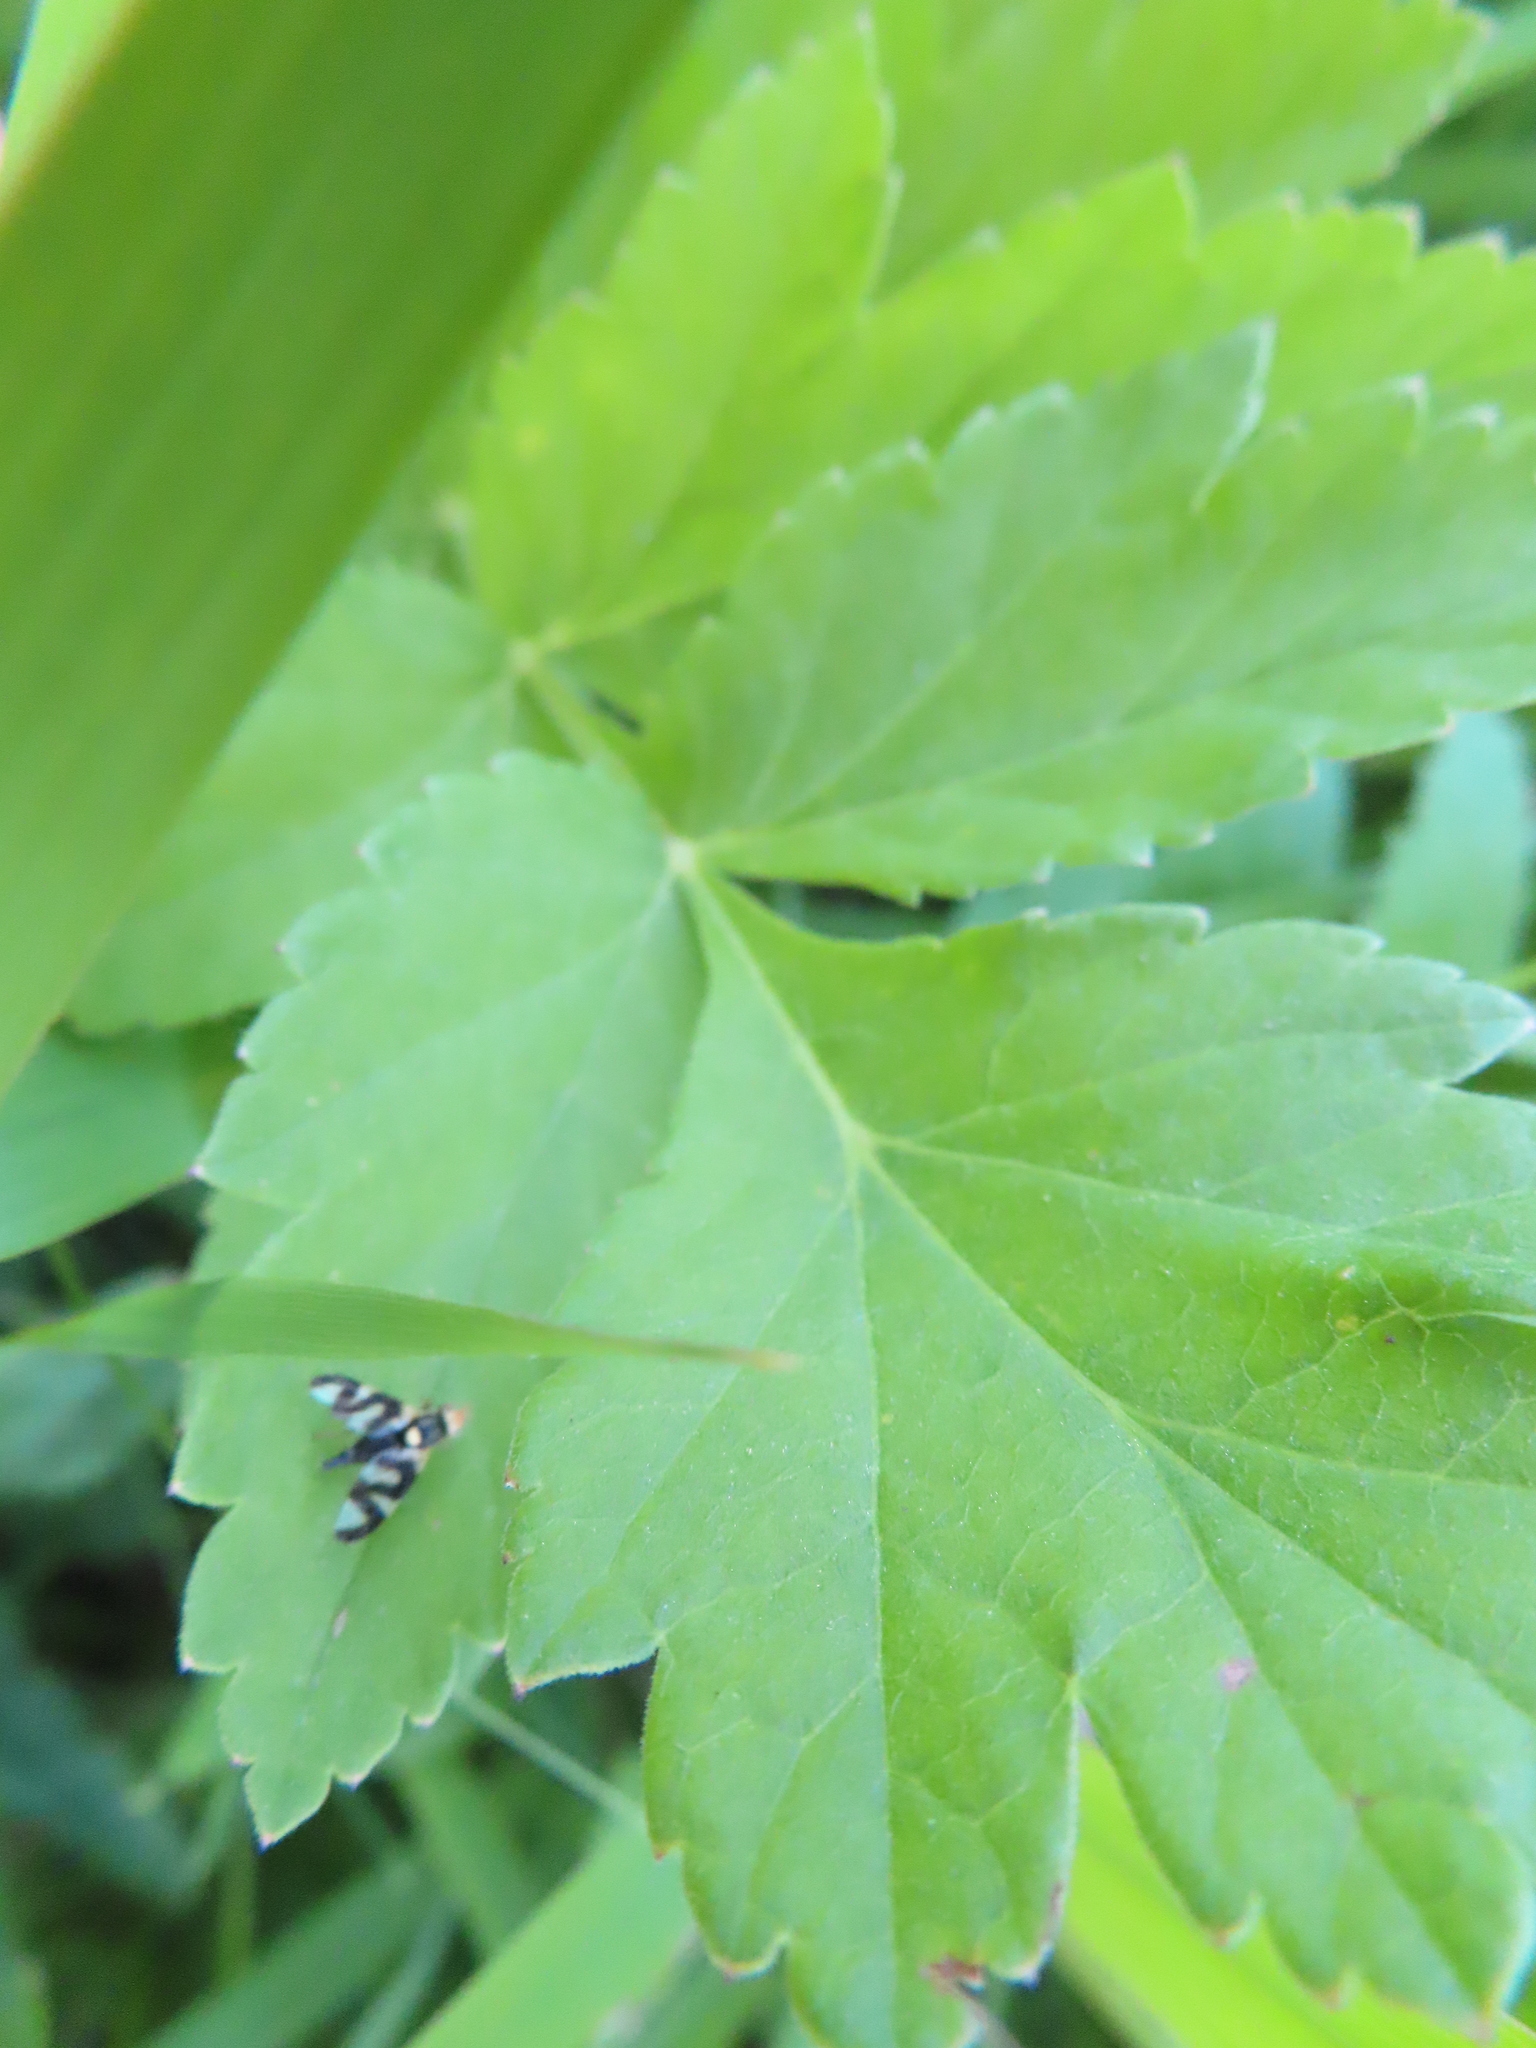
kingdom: Animalia
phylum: Arthropoda
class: Insecta
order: Diptera
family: Tephritidae
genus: Urophora
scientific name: Urophora cardui
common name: Fruit fly
